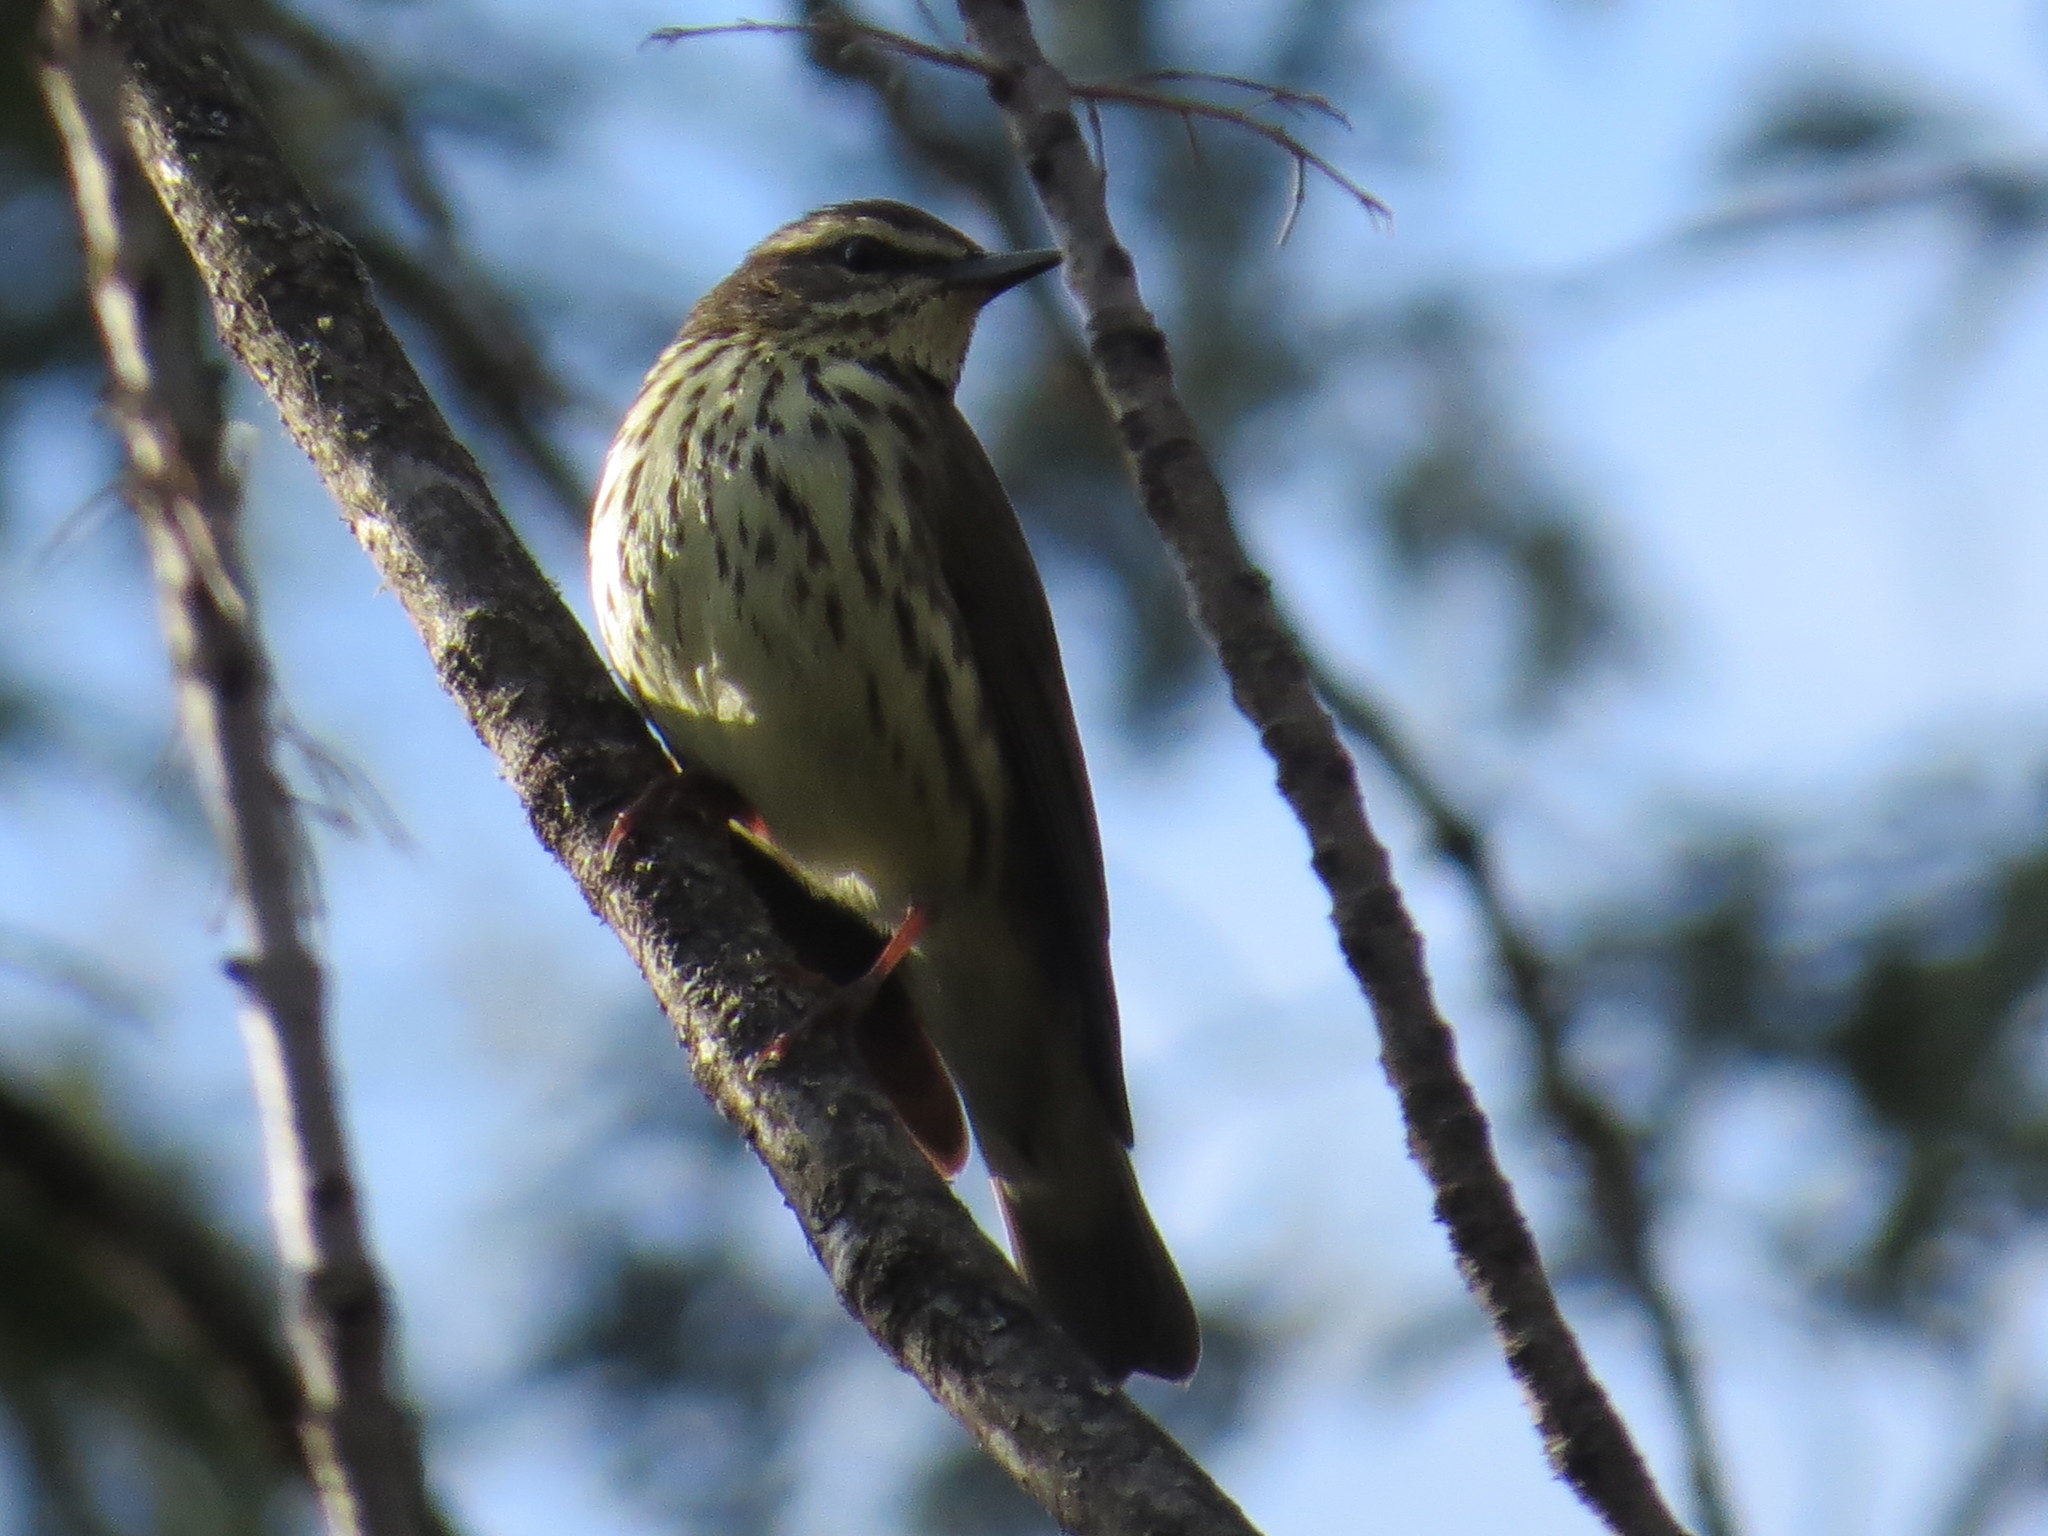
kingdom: Animalia
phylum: Chordata
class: Aves
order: Passeriformes
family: Parulidae
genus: Parkesia
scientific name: Parkesia noveboracensis
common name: Northern waterthrush
